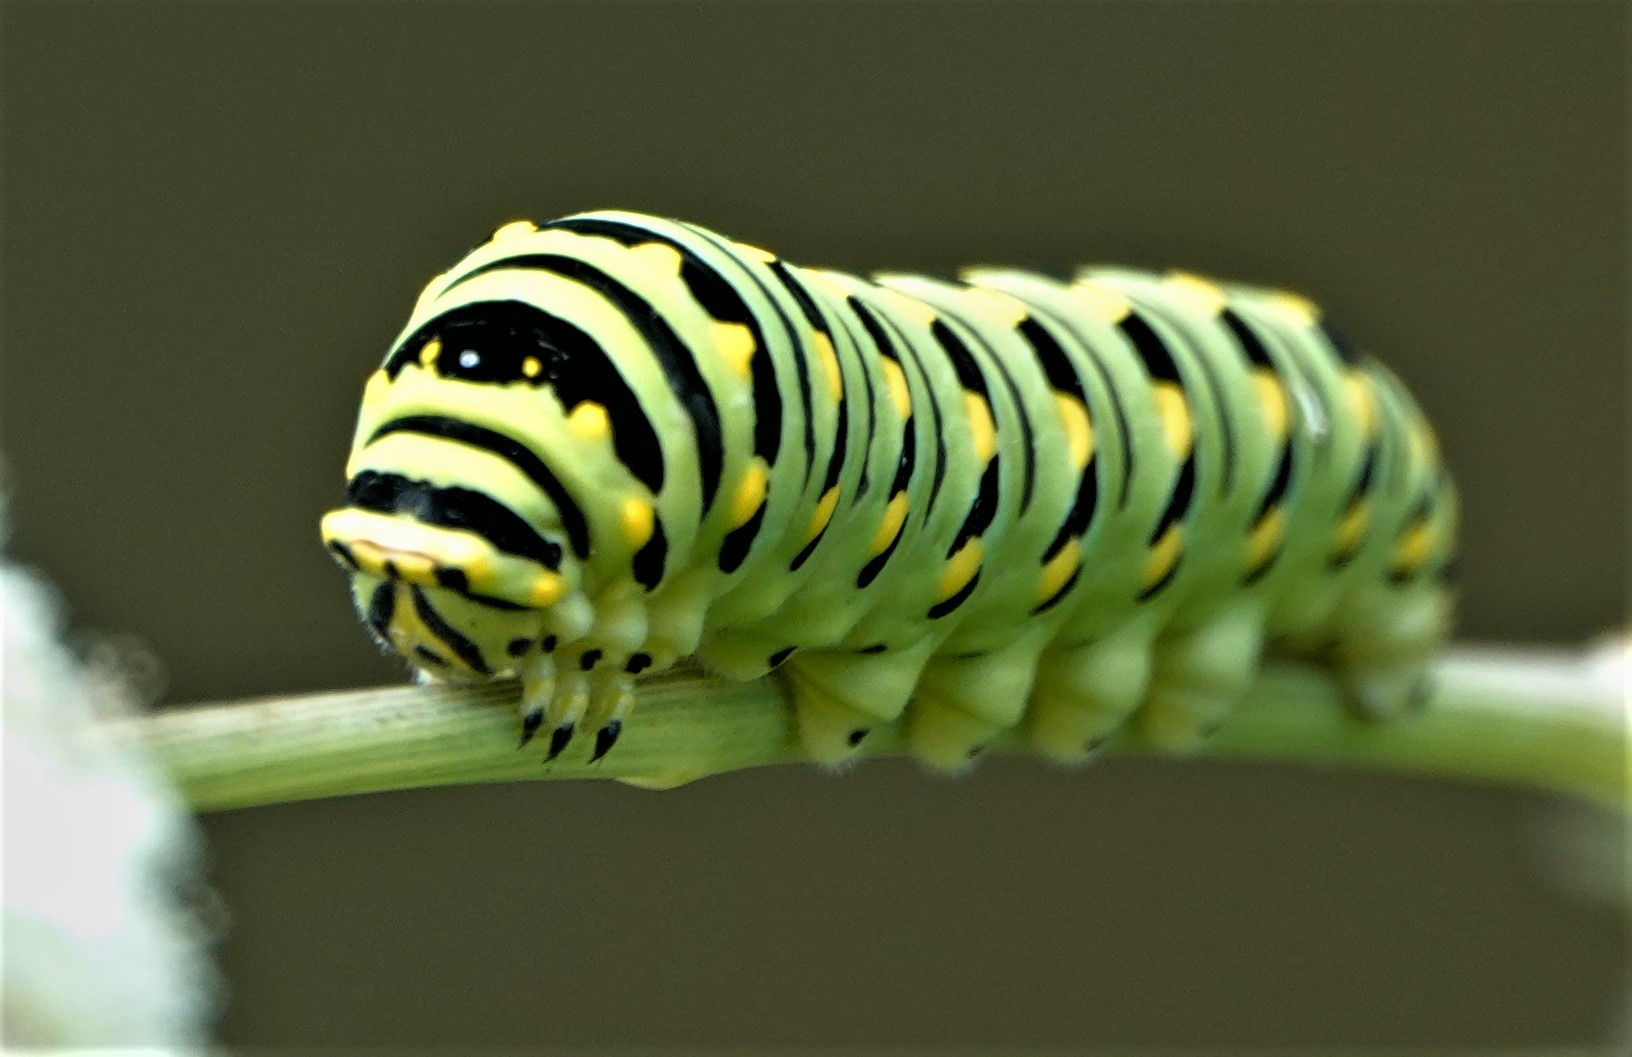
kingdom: Animalia
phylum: Arthropoda
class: Insecta
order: Lepidoptera
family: Papilionidae
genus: Papilio
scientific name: Papilio polyxenes
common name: Black swallowtail
